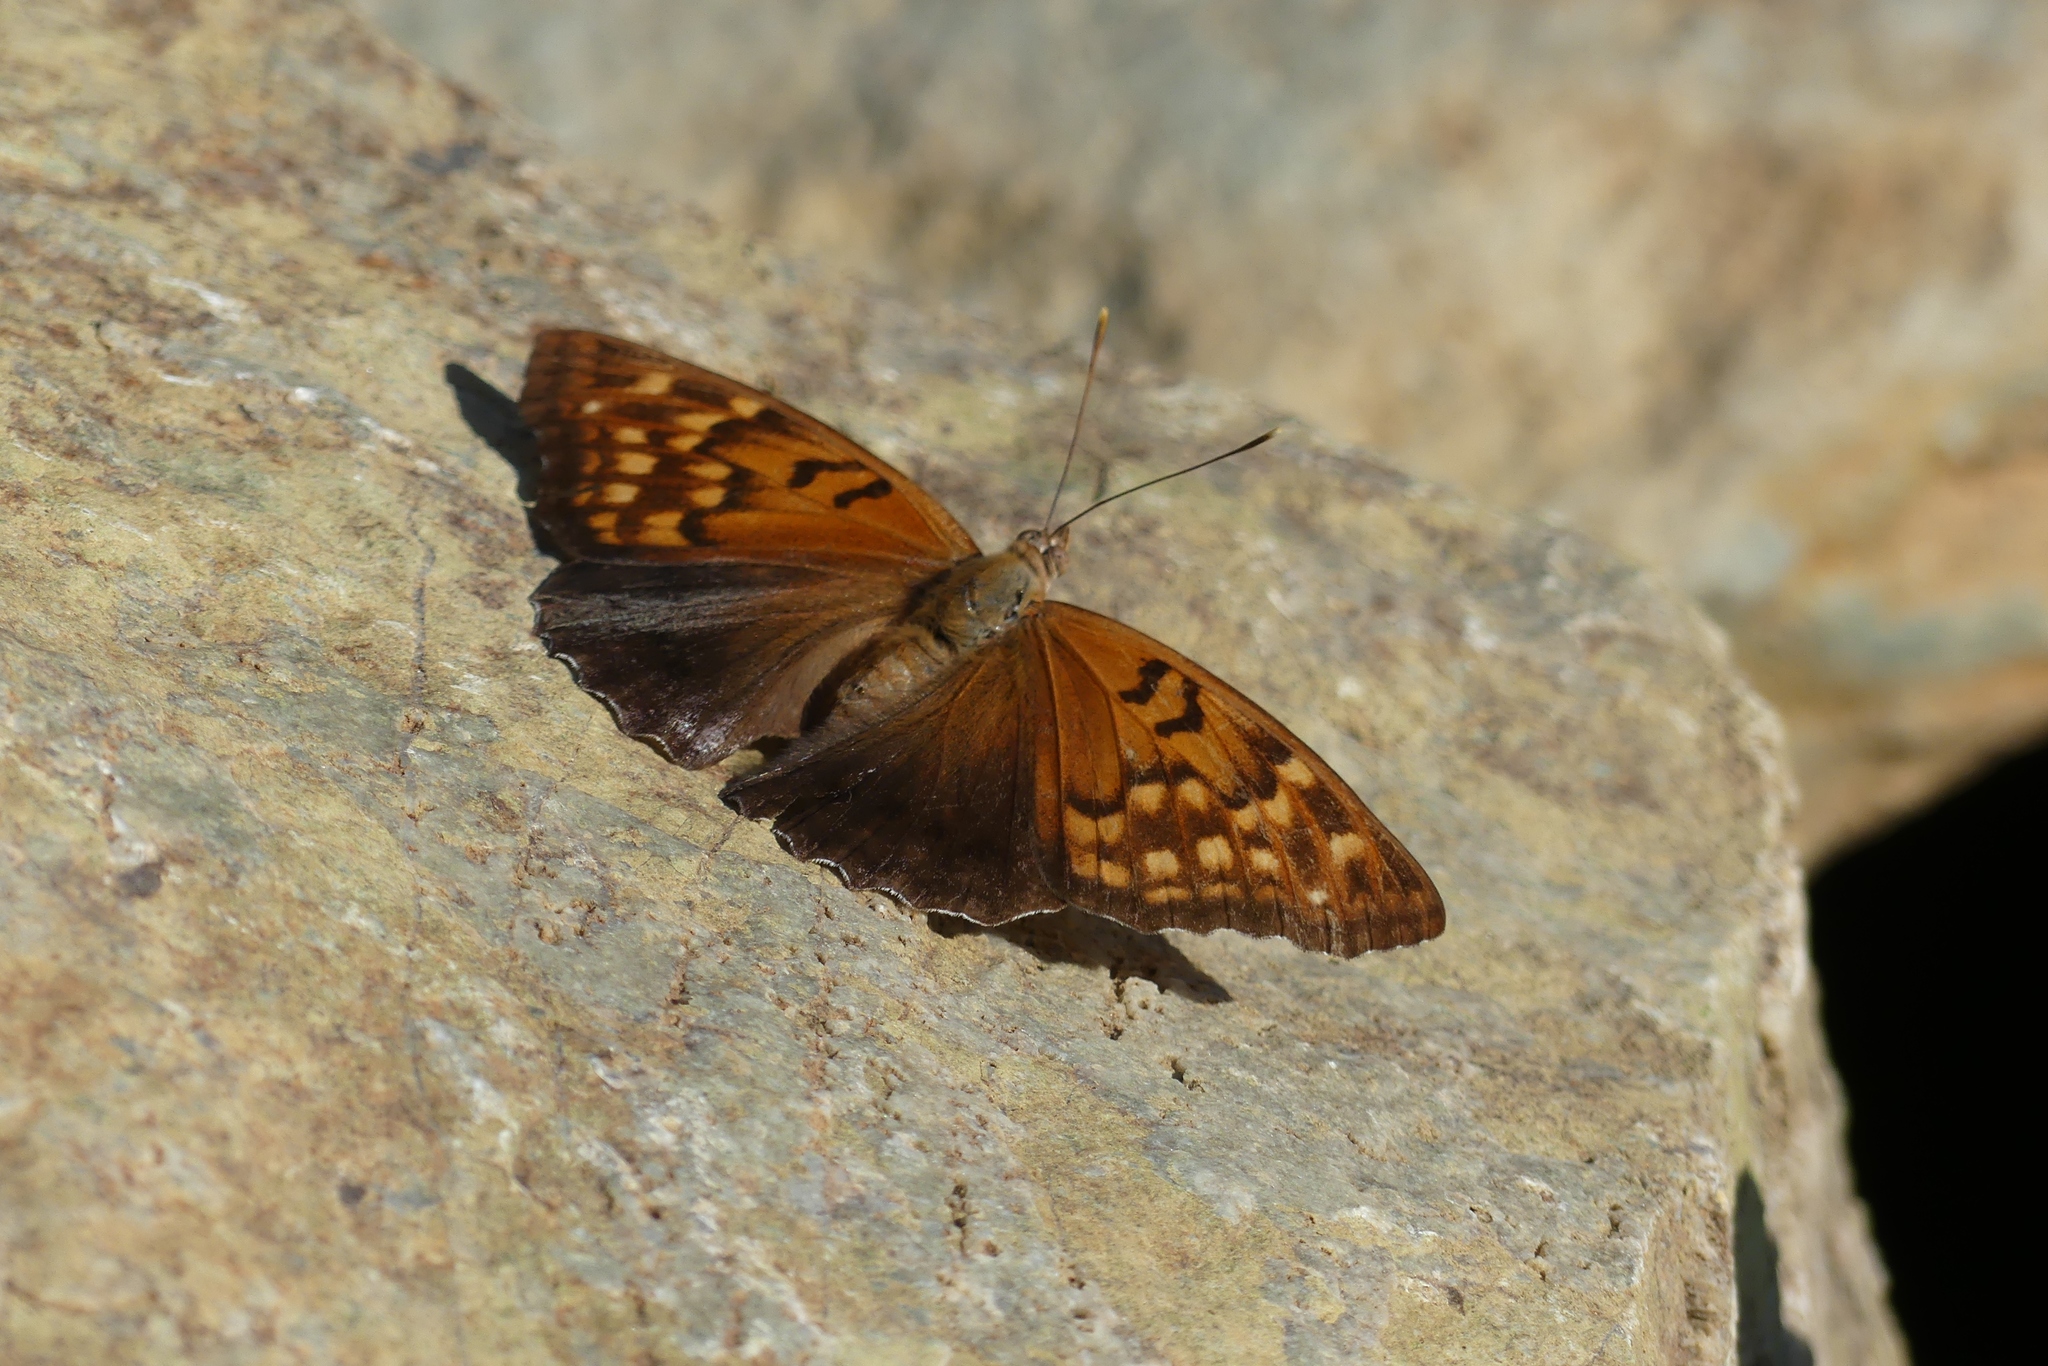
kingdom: Animalia
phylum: Arthropoda
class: Insecta
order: Lepidoptera
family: Nymphalidae
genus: Asterocampa
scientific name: Asterocampa clyton
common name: Tawny emperor
